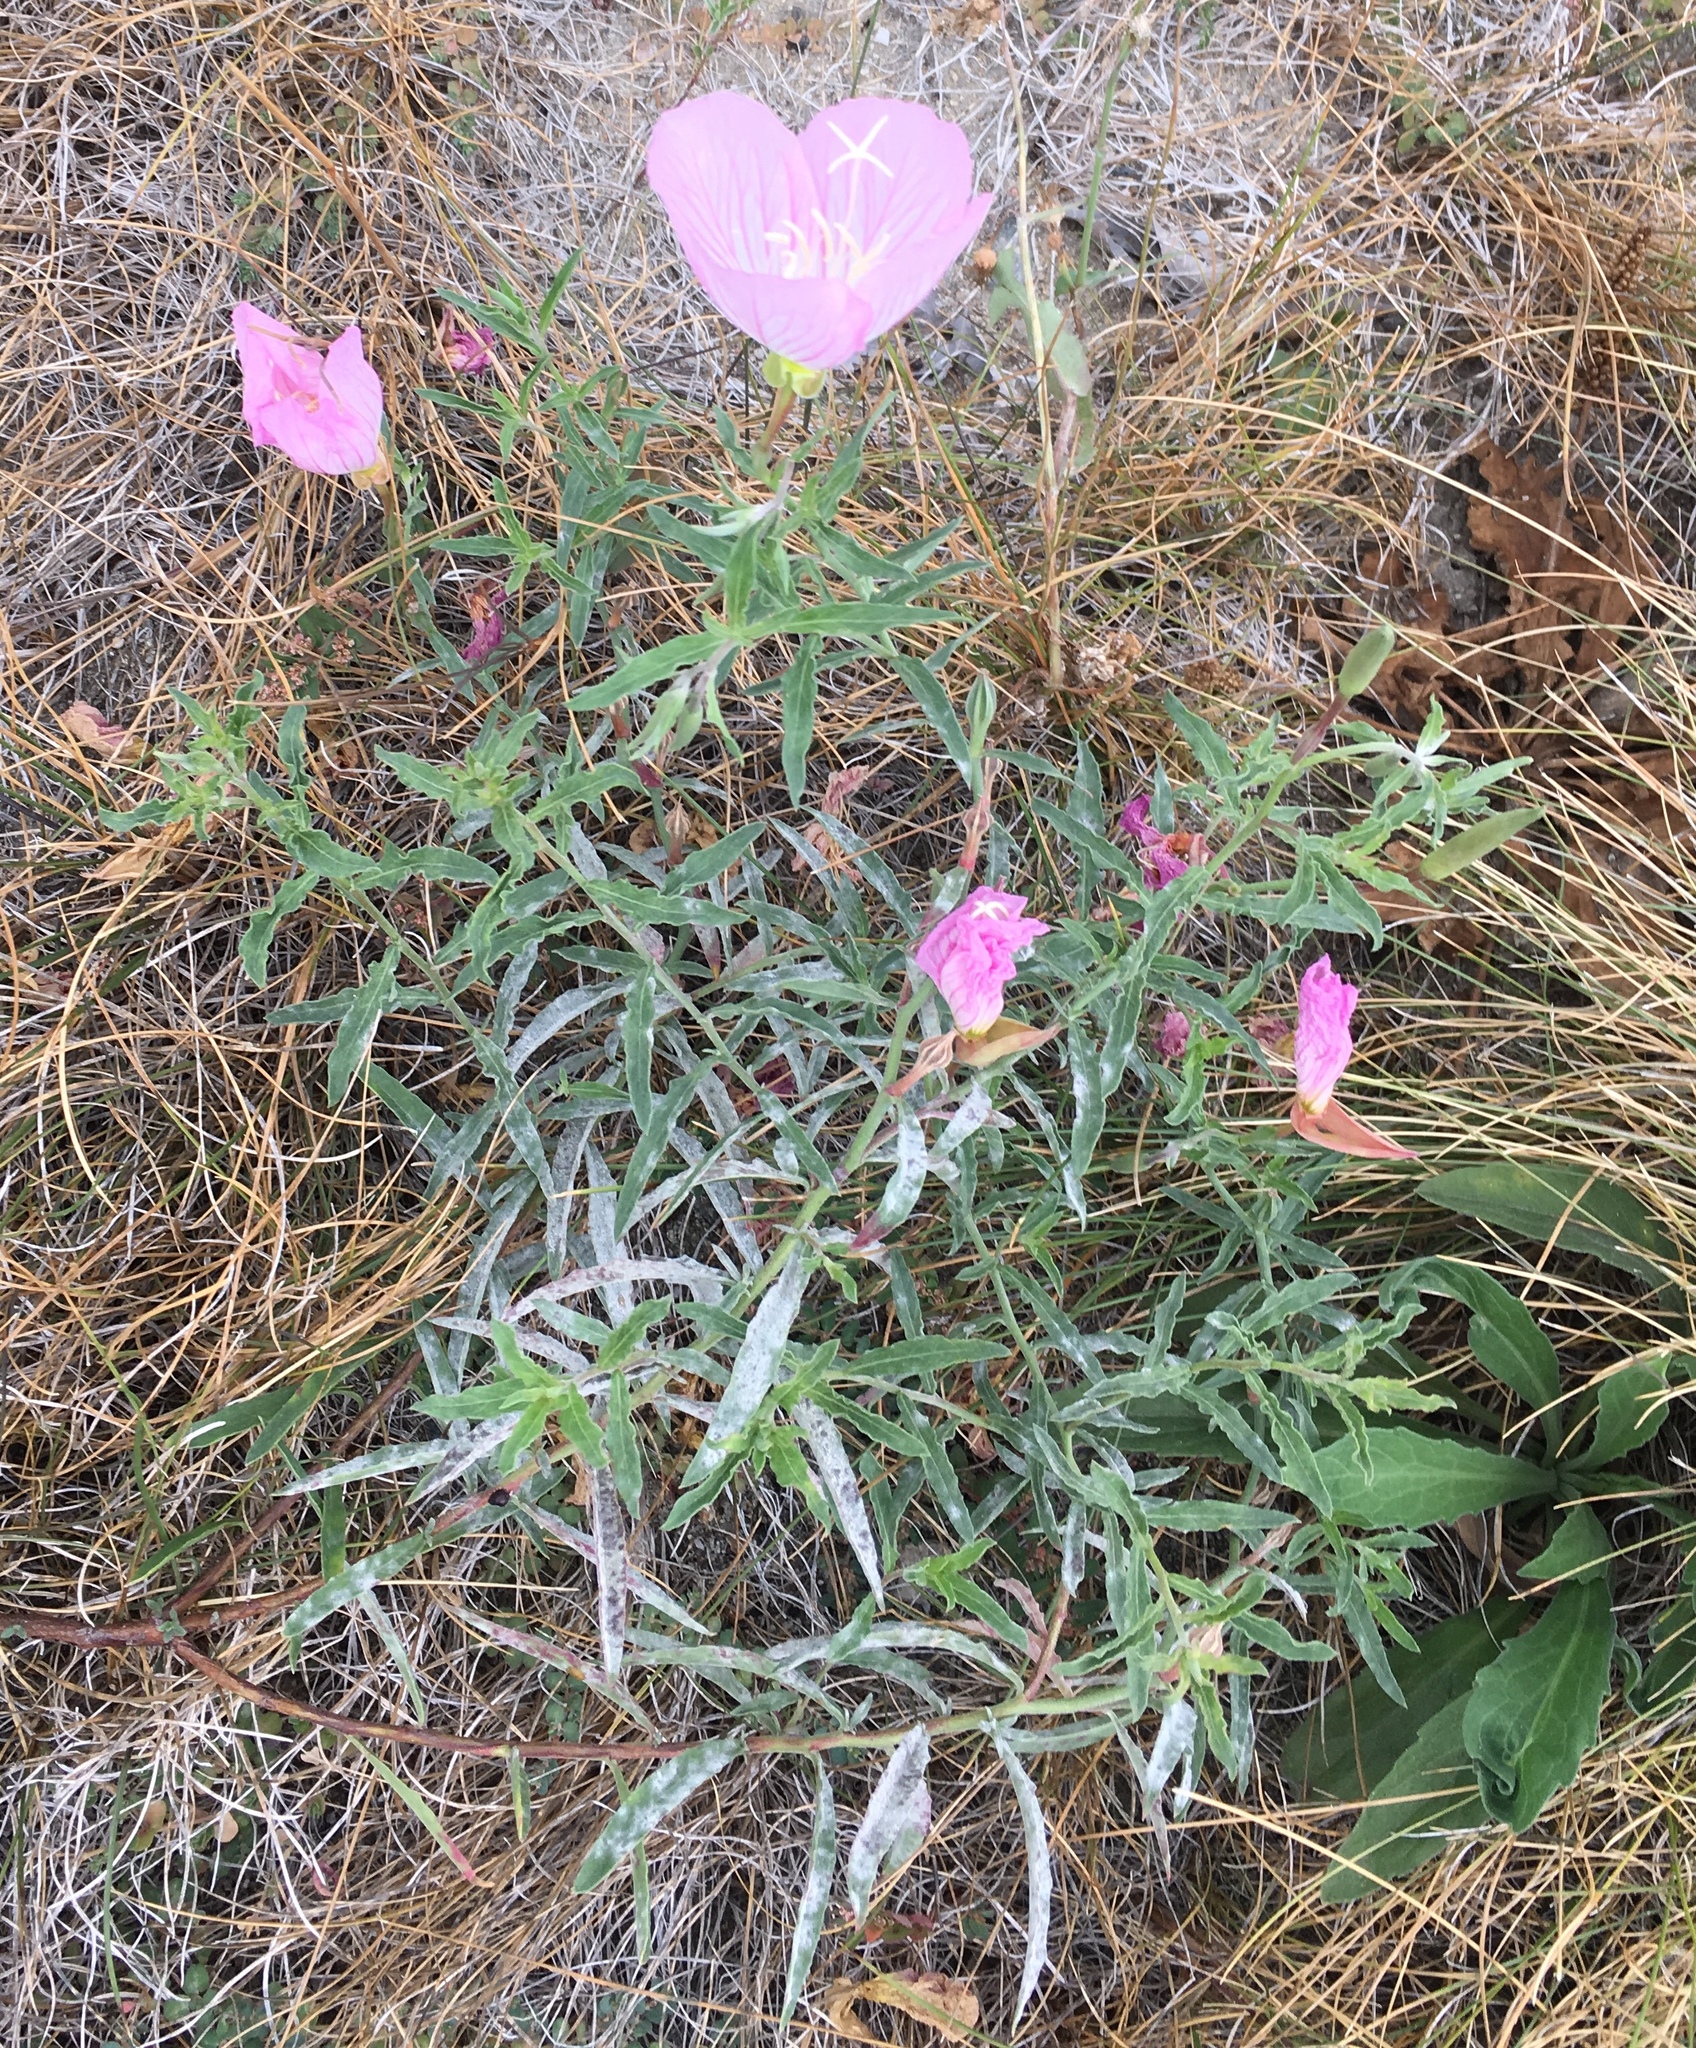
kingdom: Plantae
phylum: Tracheophyta
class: Magnoliopsida
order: Myrtales
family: Onagraceae
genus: Oenothera
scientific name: Oenothera speciosa
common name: White evening-primrose
